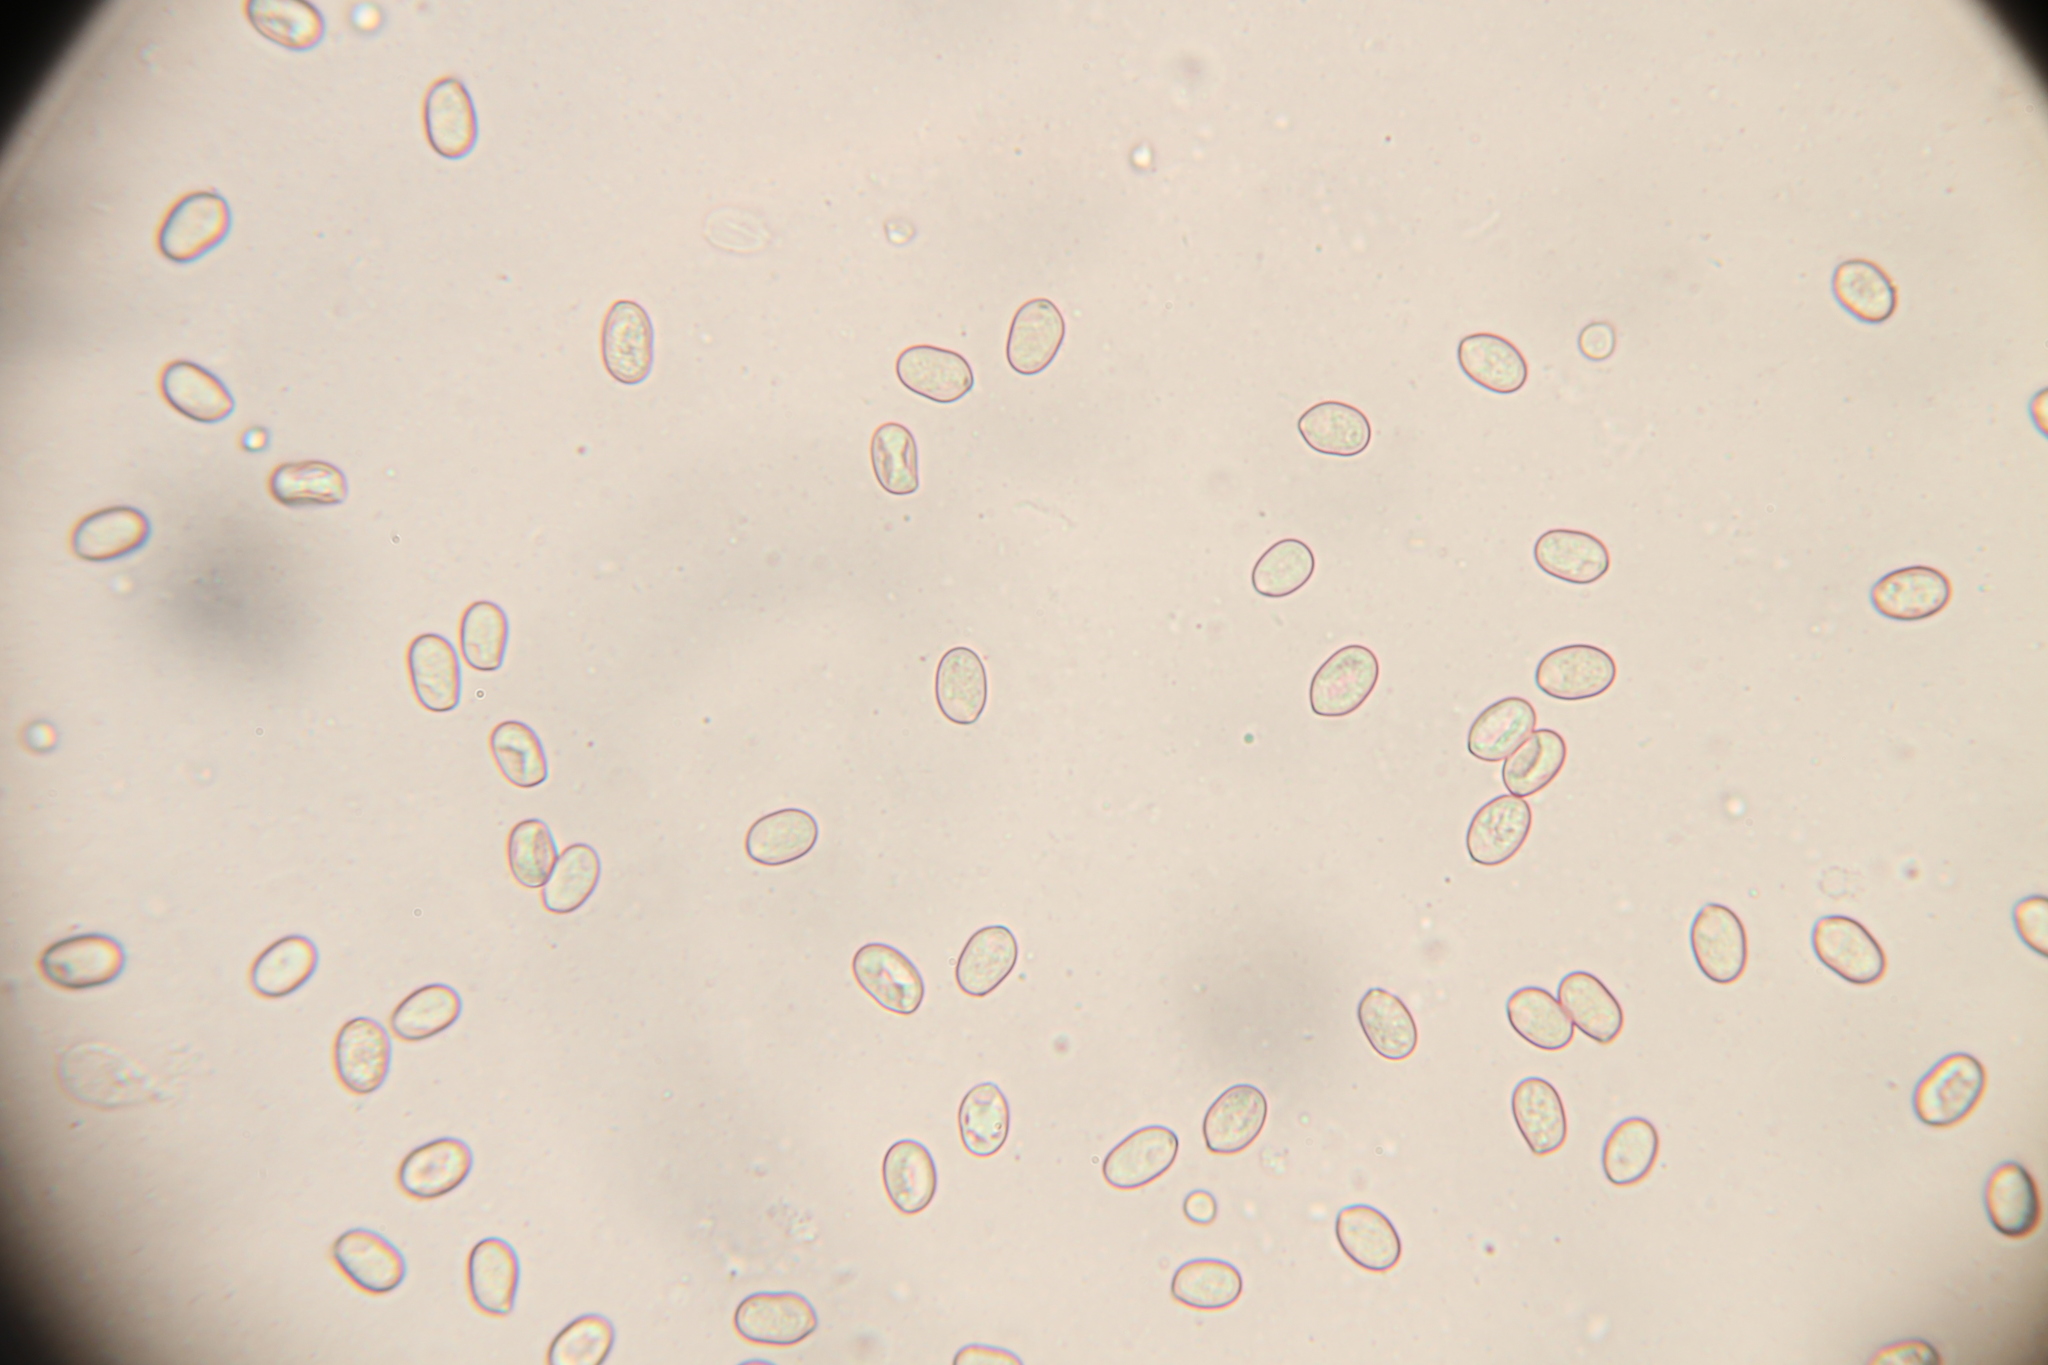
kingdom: Fungi
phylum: Basidiomycota
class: Agaricomycetes
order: Agaricales
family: Pluteaceae
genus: Pluteus
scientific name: Pluteus cervinus
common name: Deer shield
